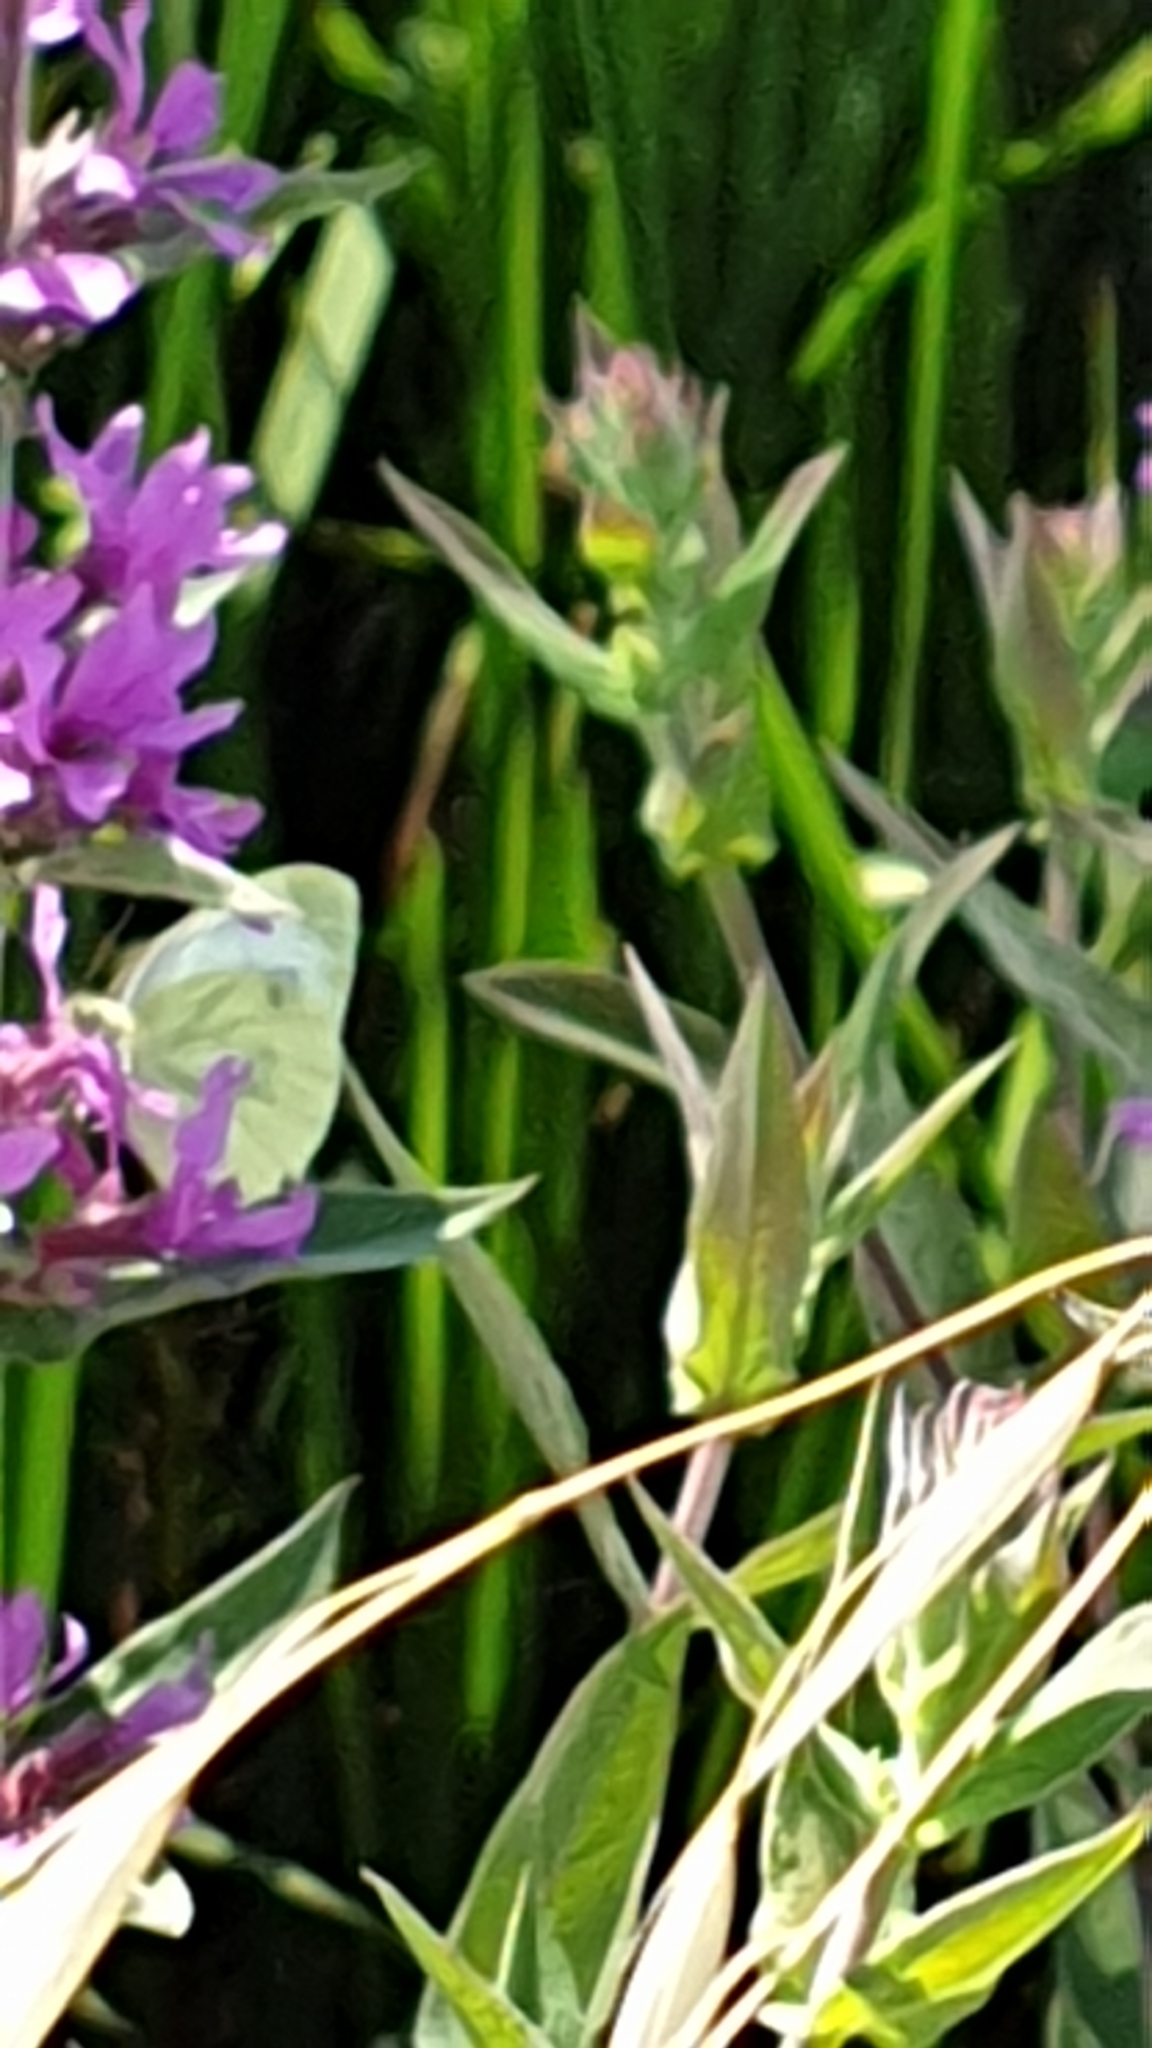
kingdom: Animalia
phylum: Arthropoda
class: Insecta
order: Lepidoptera
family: Pieridae
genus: Pieris
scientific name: Pieris napi
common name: Green-veined white
